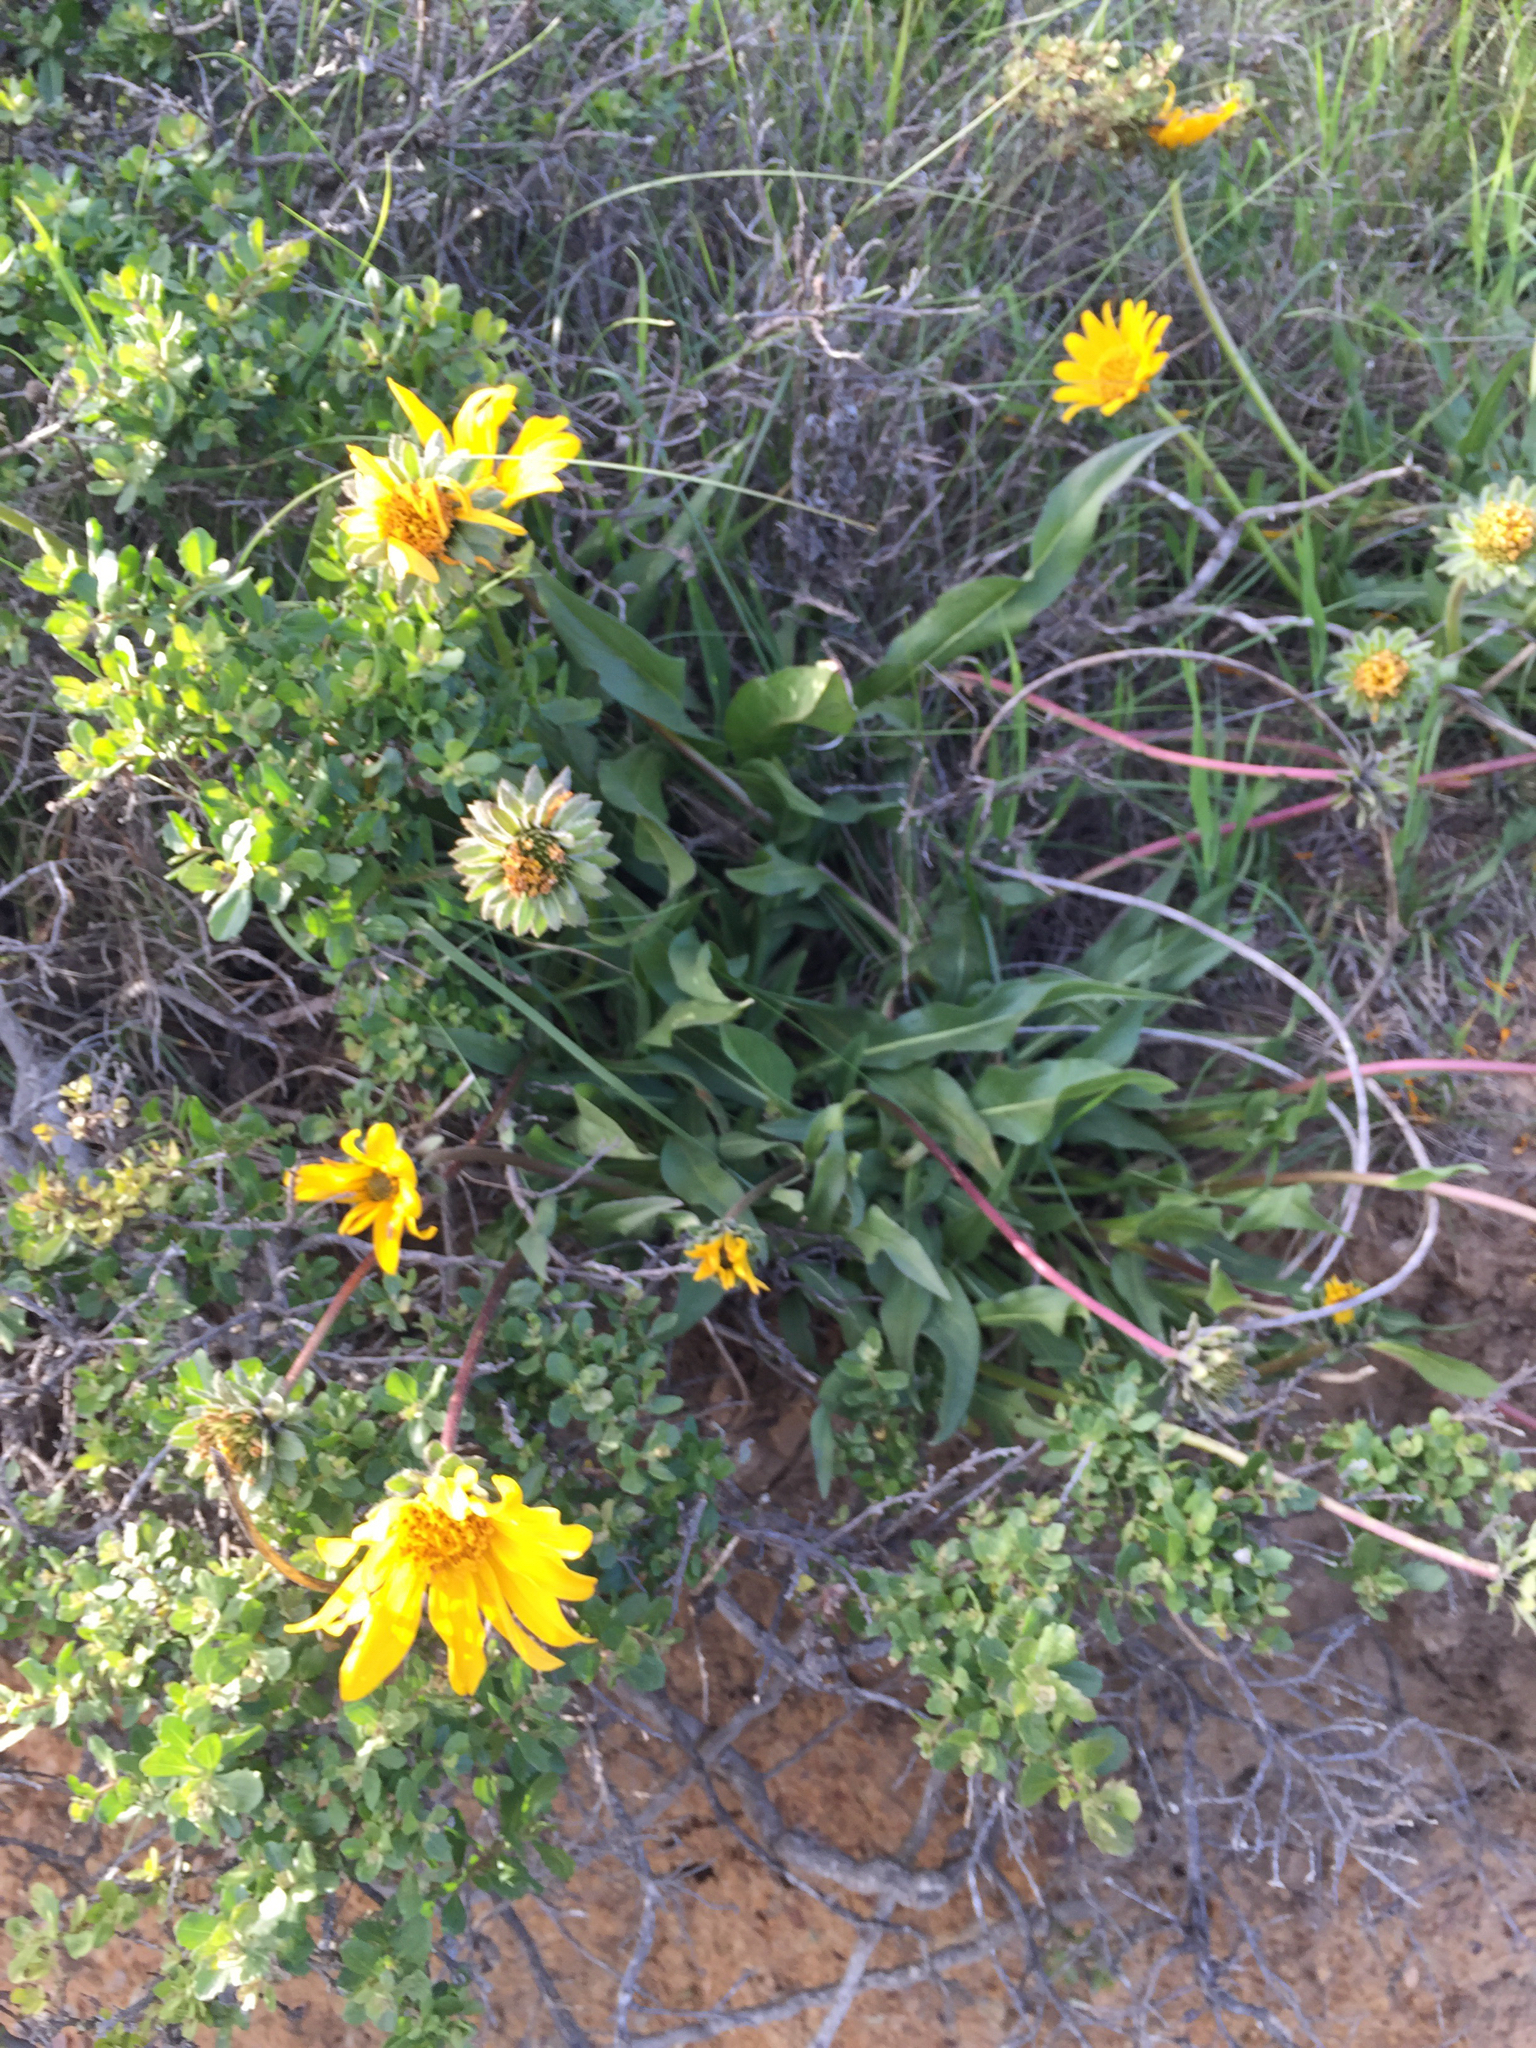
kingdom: Plantae
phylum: Tracheophyta
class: Magnoliopsida
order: Asterales
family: Asteraceae
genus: Wyethia
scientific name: Wyethia angustifolia
